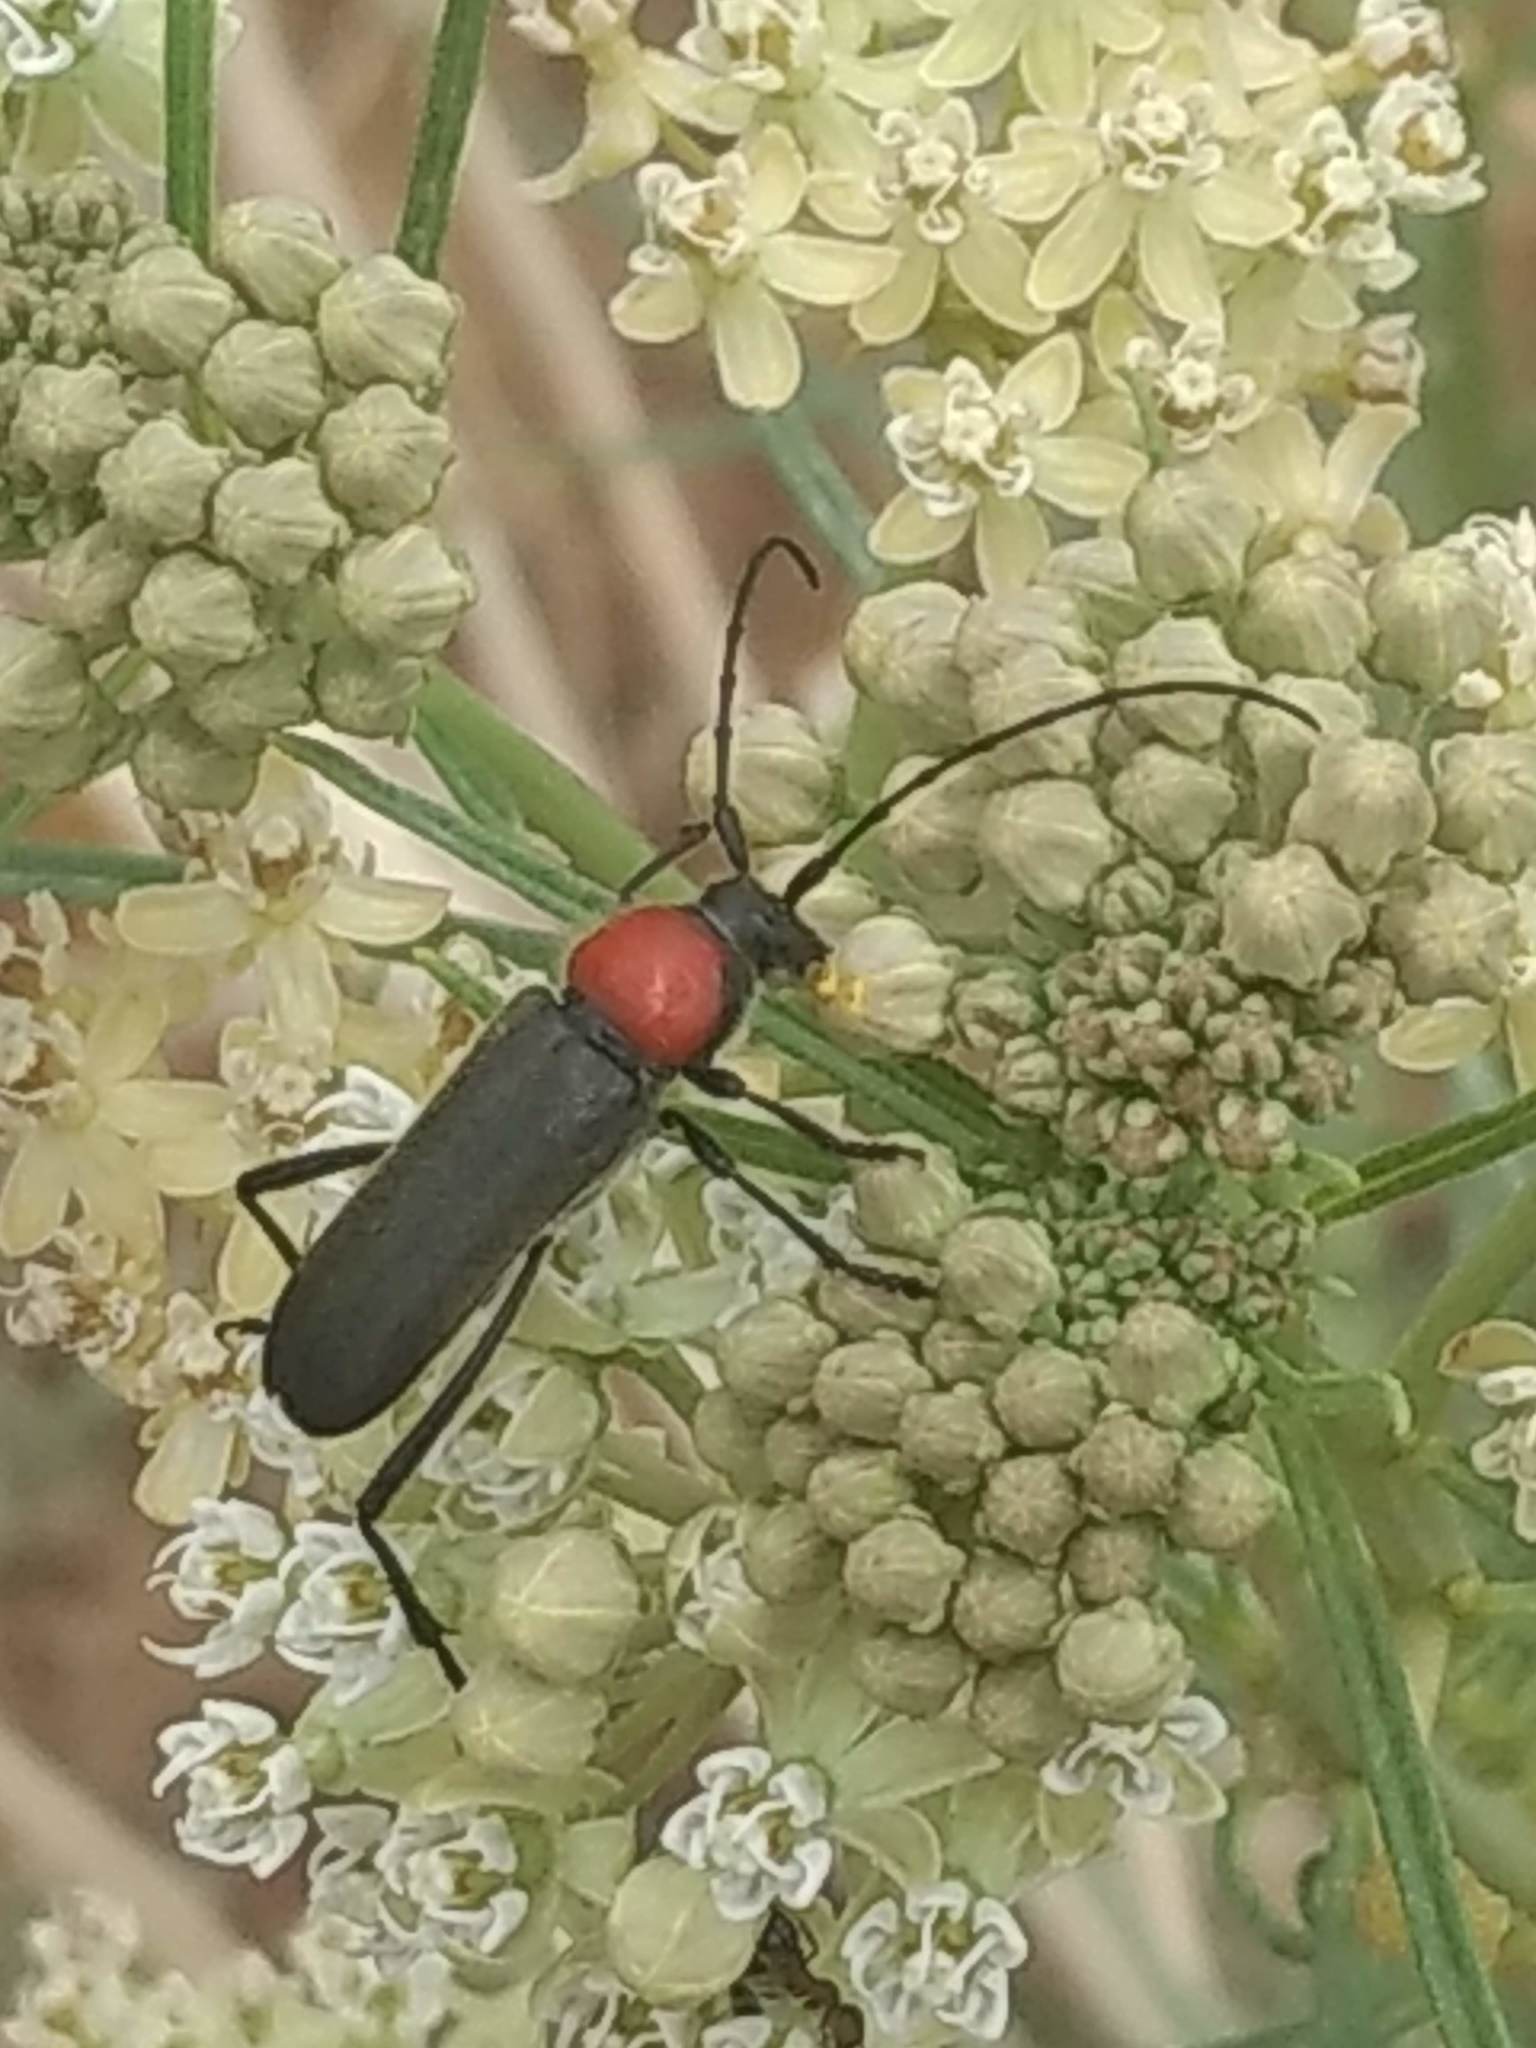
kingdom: Animalia
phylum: Arthropoda
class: Insecta
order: Coleoptera
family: Cerambycidae
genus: Batyle
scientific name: Batyle ignicollis
